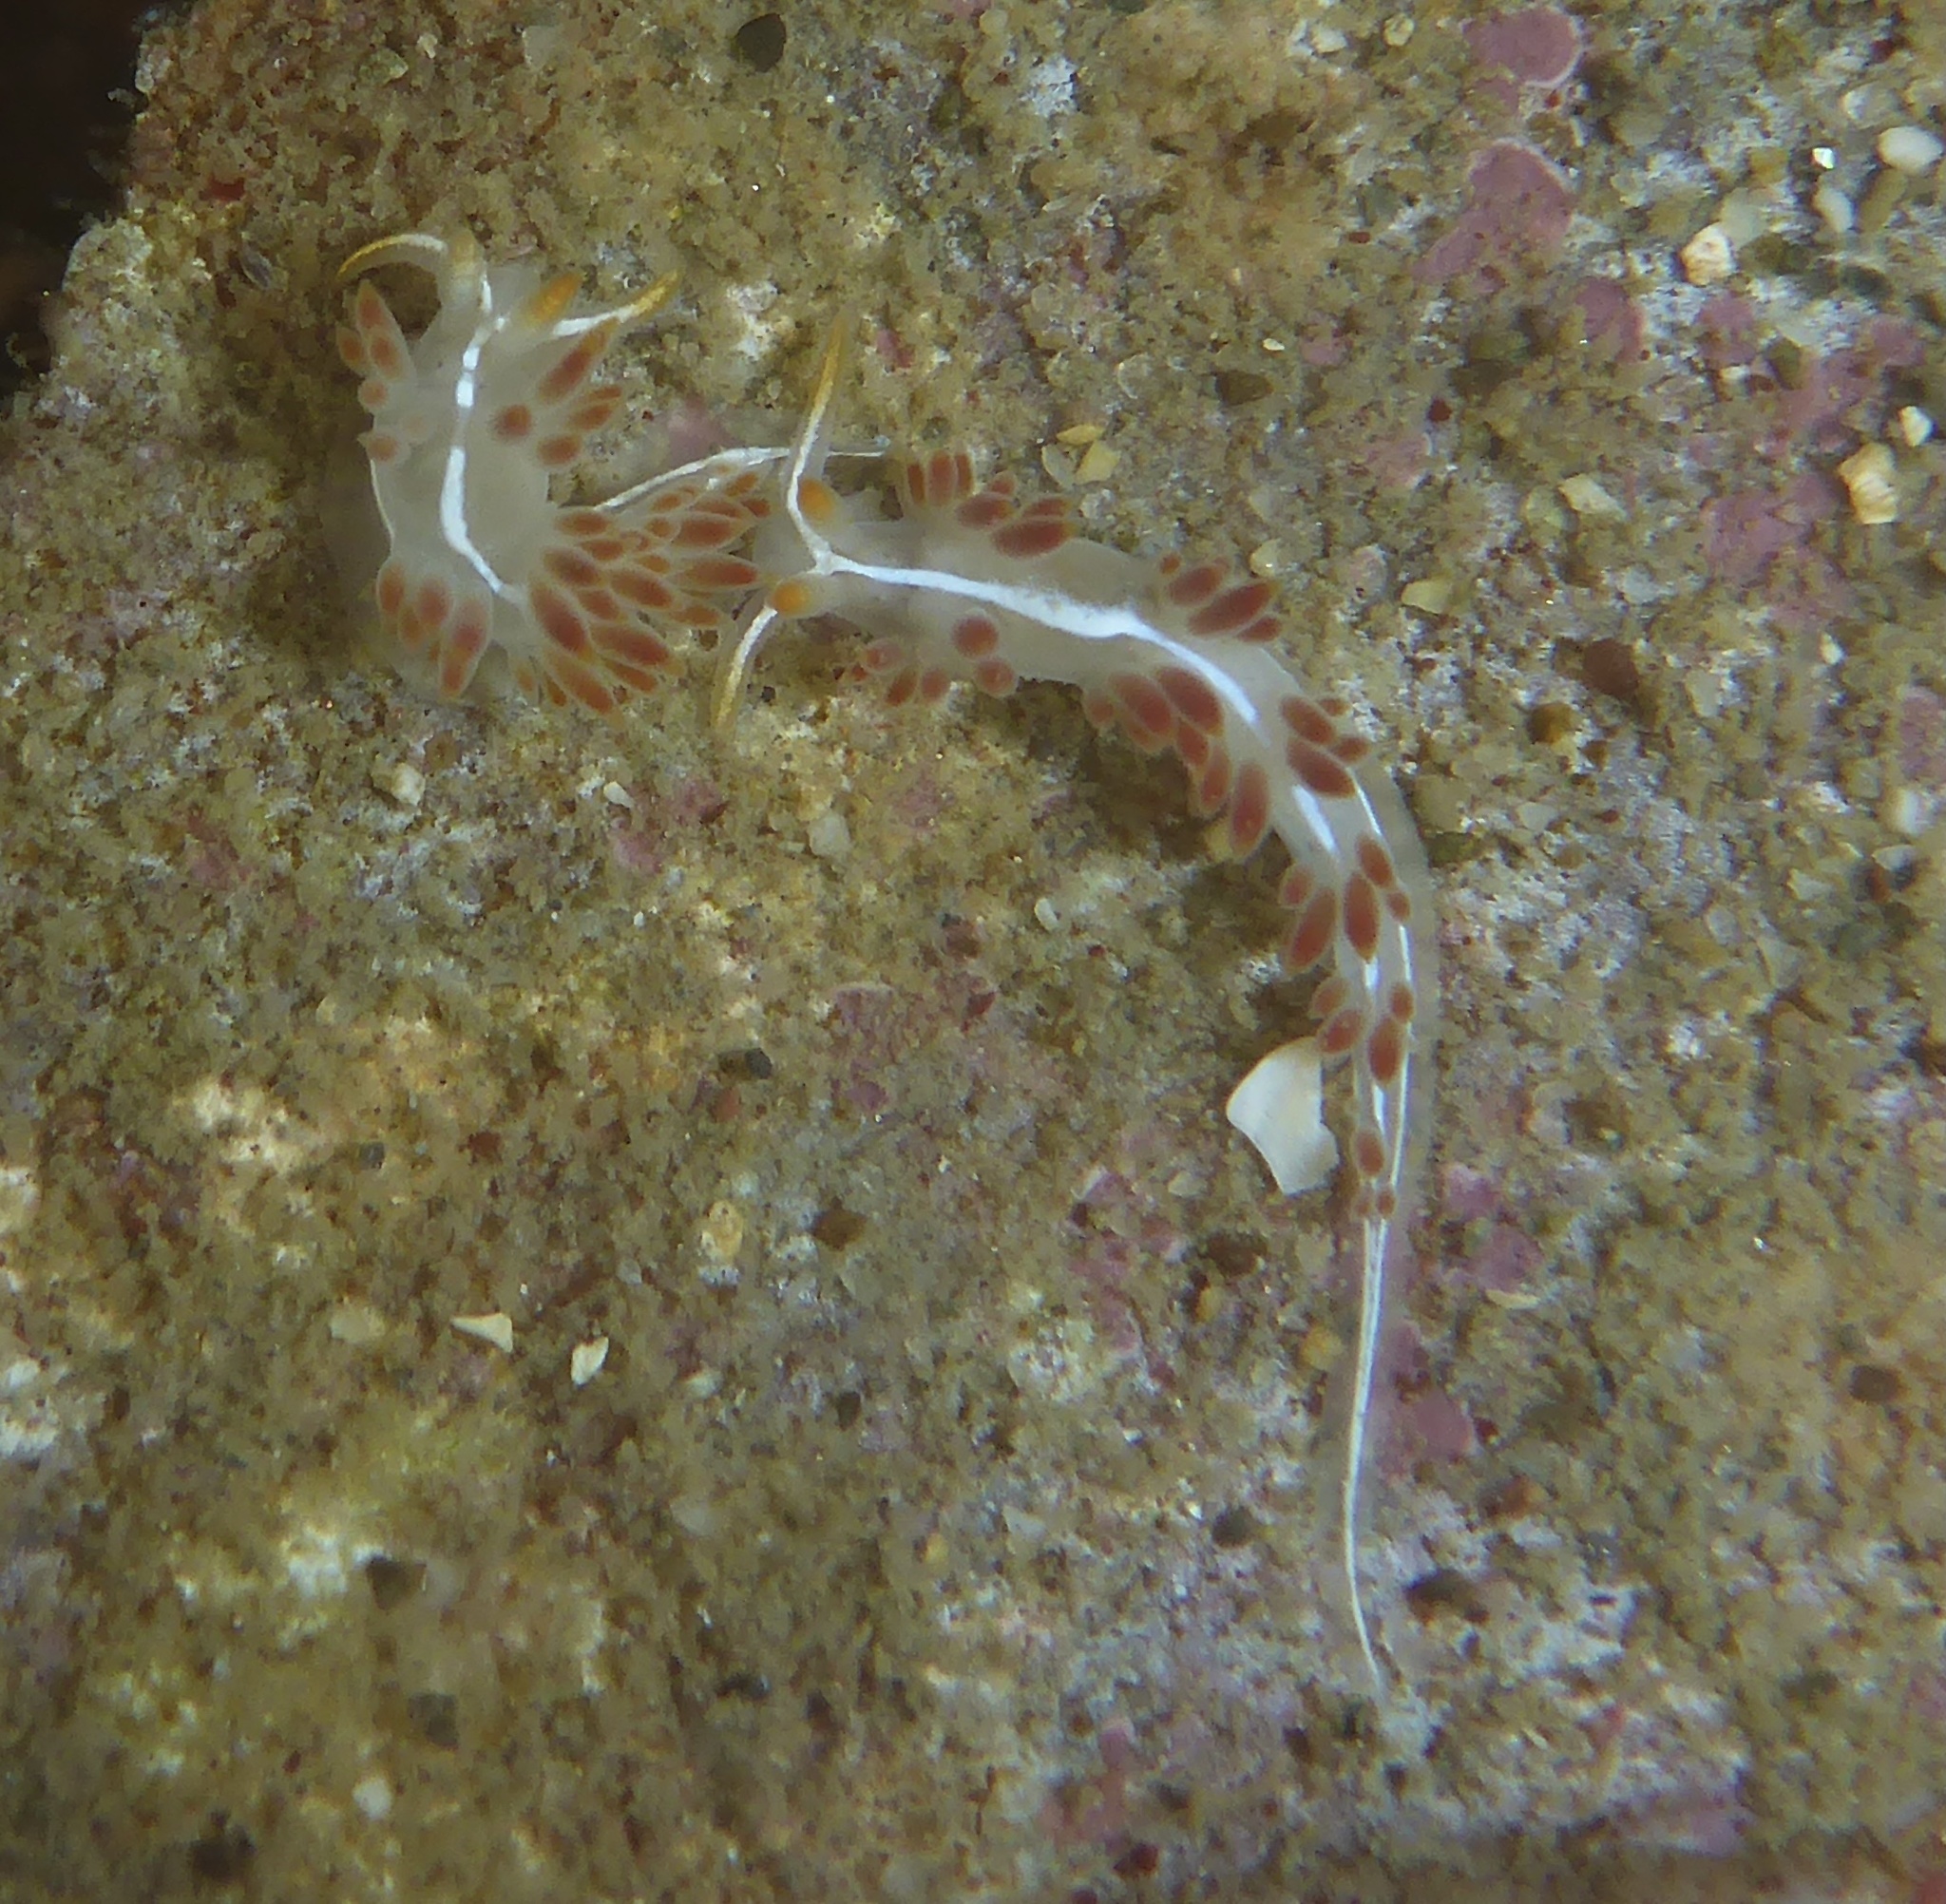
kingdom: Animalia
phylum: Mollusca
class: Gastropoda
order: Nudibranchia
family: Coryphellidae
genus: Coryphella
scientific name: Coryphella trilineata
